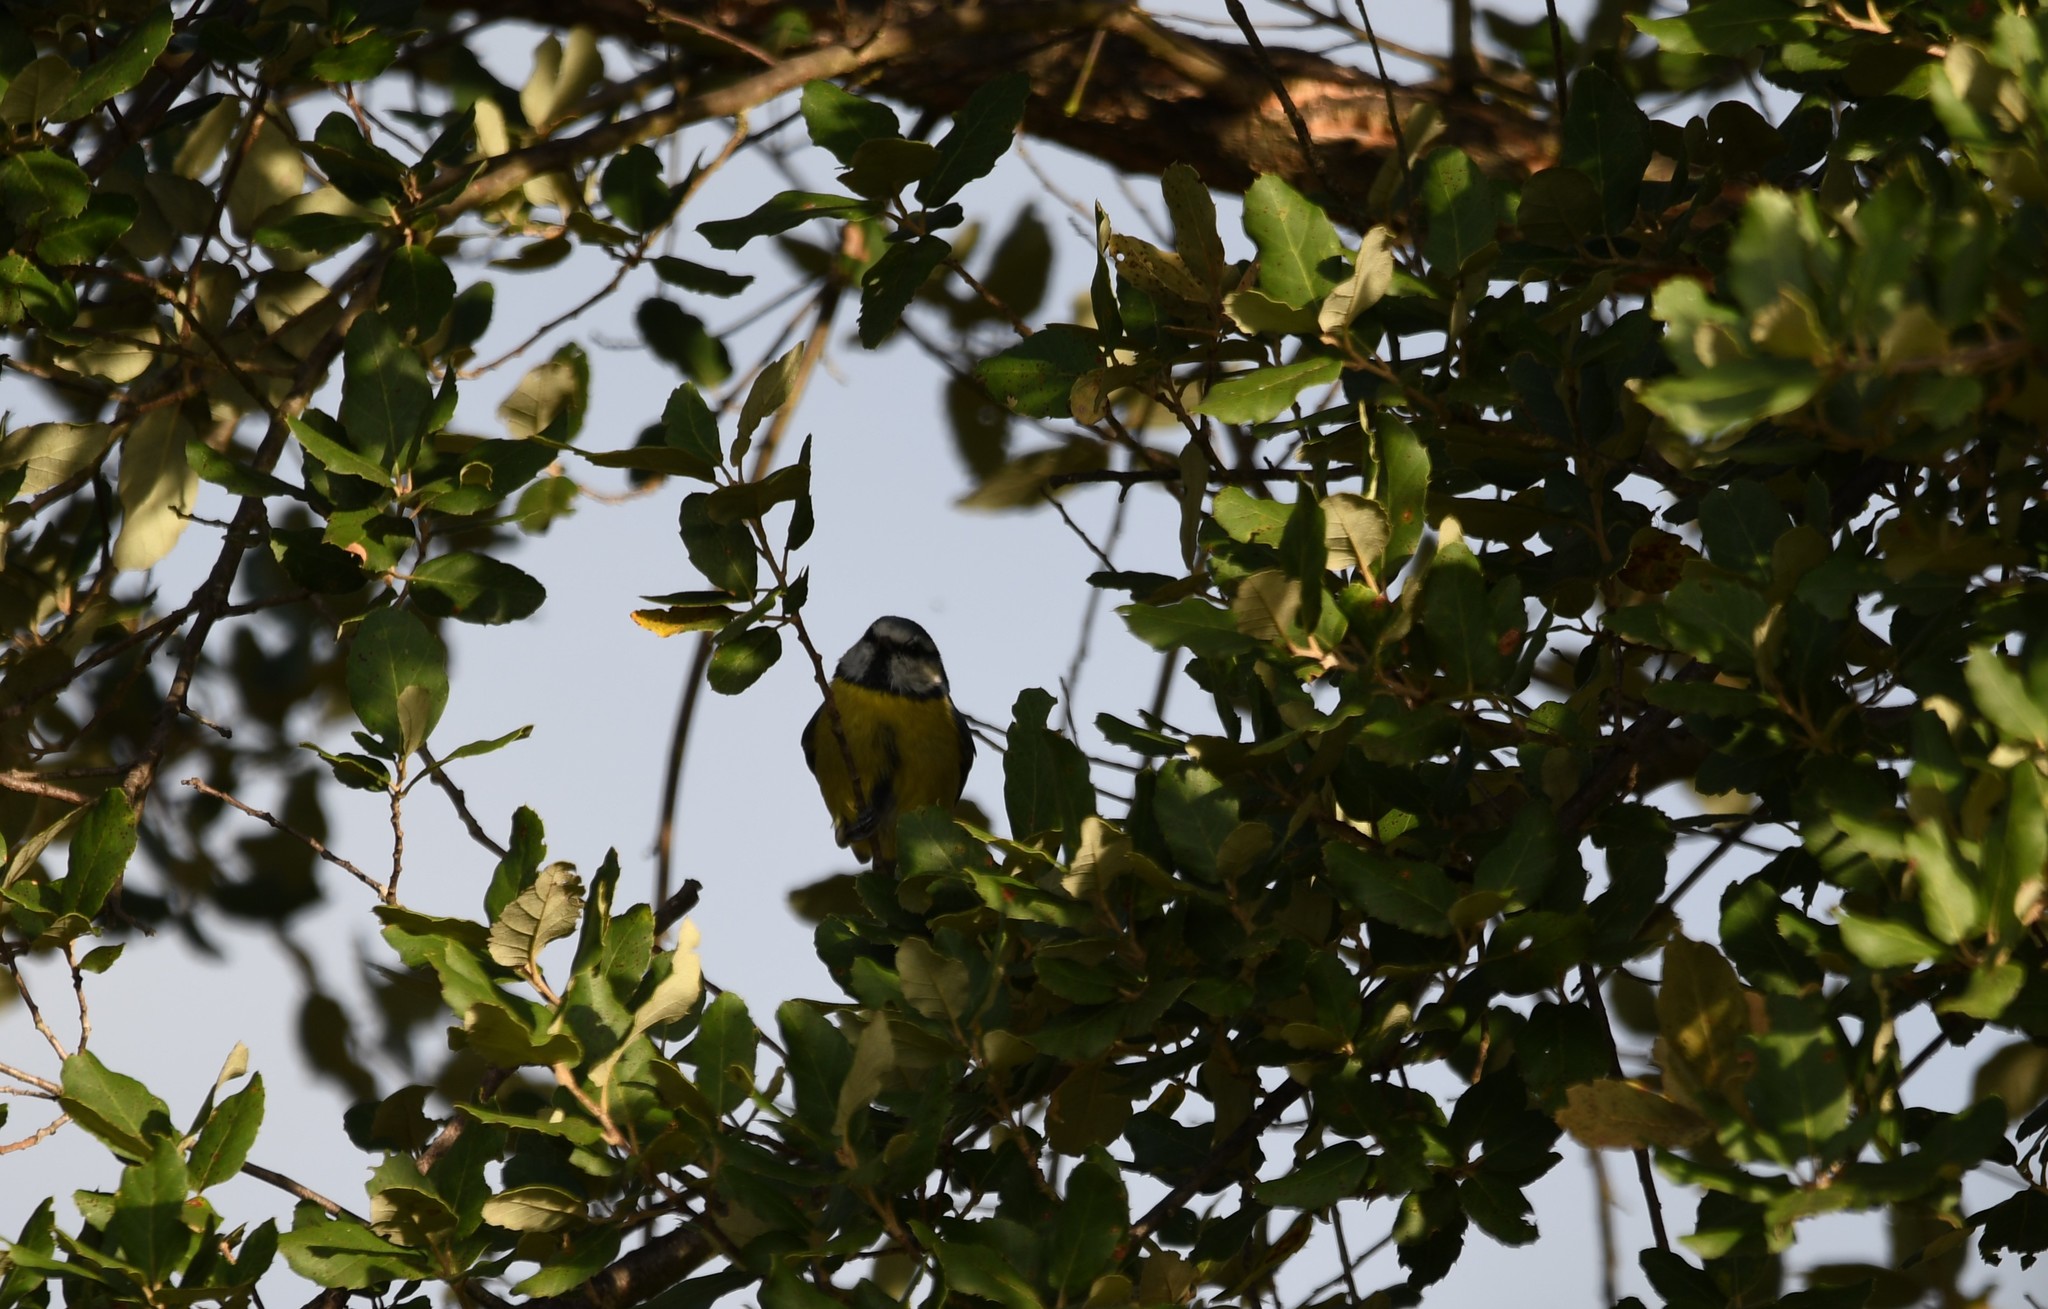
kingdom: Animalia
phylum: Chordata
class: Aves
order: Passeriformes
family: Paridae
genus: Cyanistes
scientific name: Cyanistes caeruleus
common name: Eurasian blue tit
